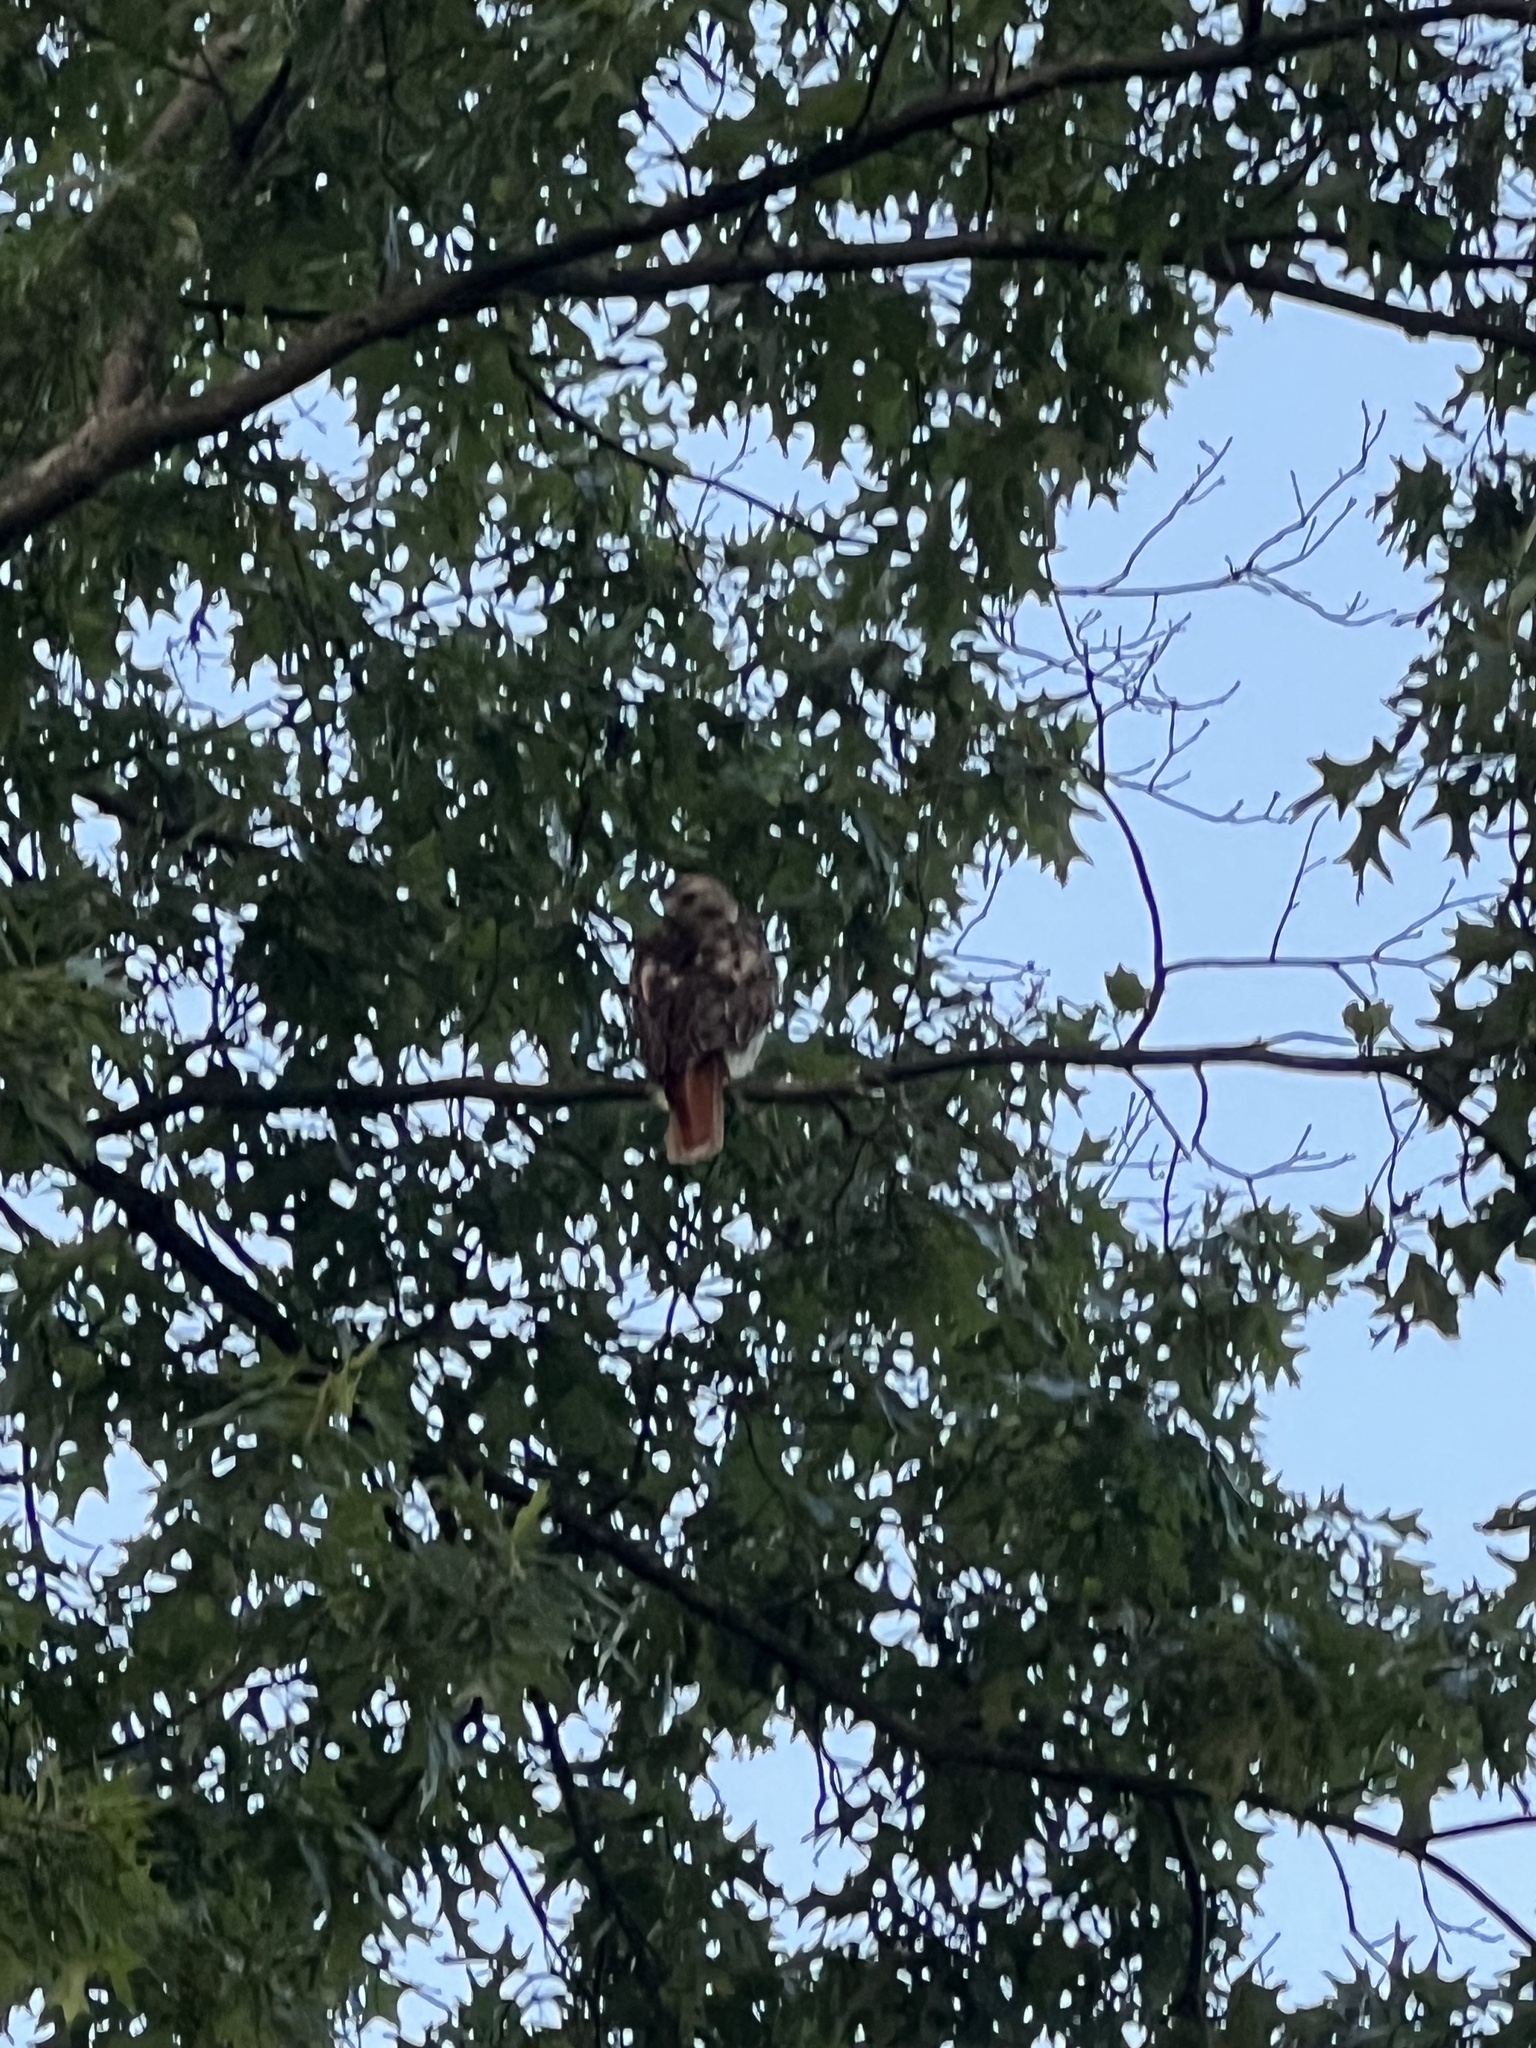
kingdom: Animalia
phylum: Chordata
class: Aves
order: Accipitriformes
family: Accipitridae
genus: Buteo
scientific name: Buteo jamaicensis
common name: Red-tailed hawk
